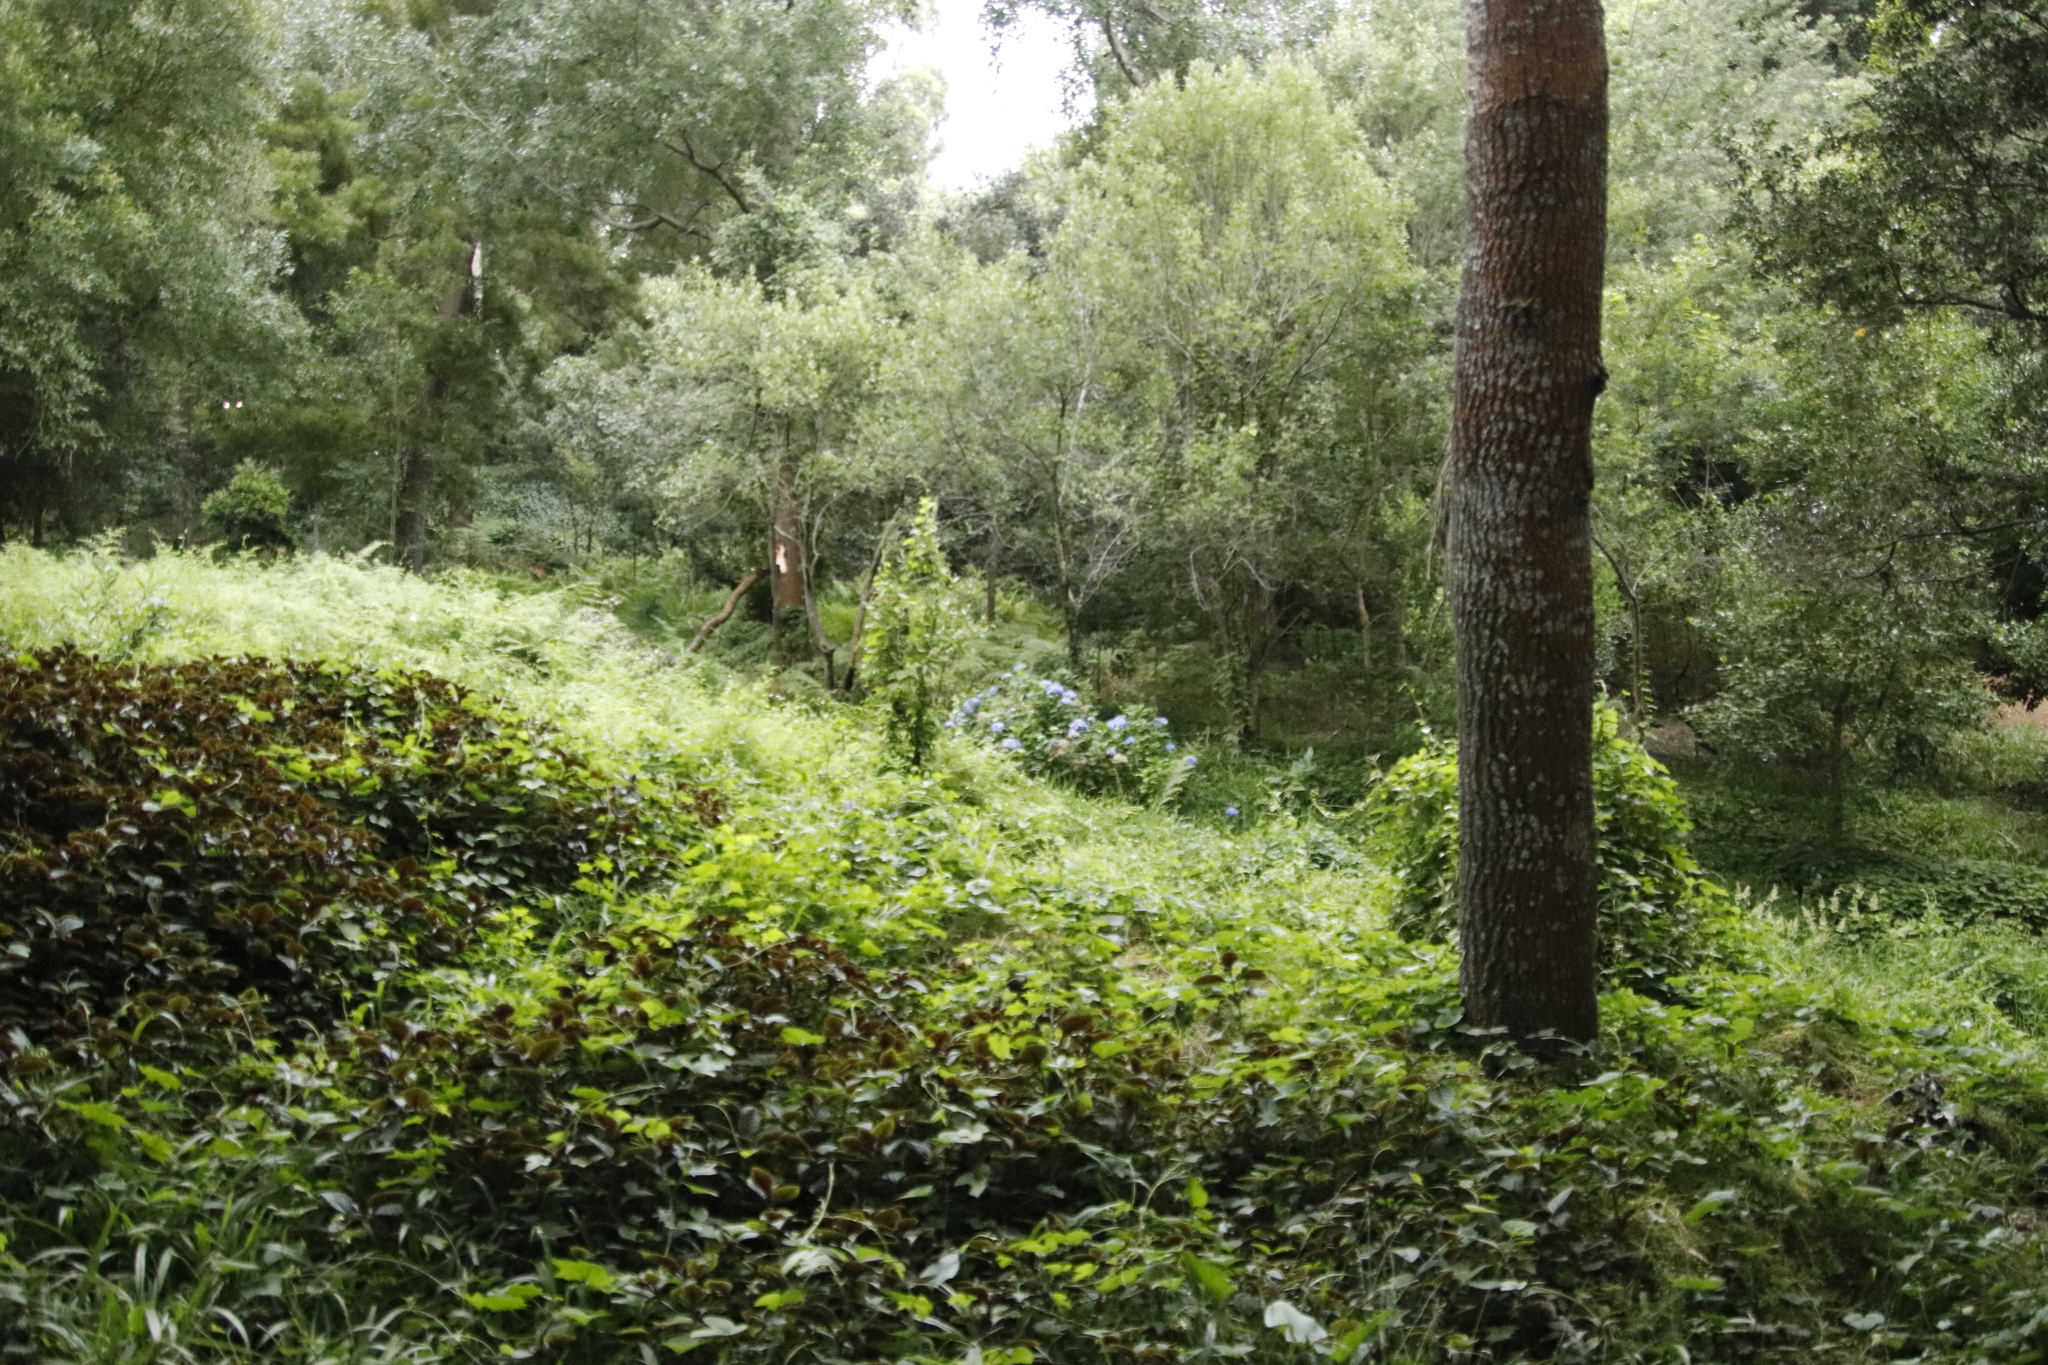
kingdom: Plantae
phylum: Tracheophyta
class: Magnoliopsida
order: Cornales
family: Hydrangeaceae
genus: Hydrangea
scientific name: Hydrangea macrophylla
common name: Hydrangea
